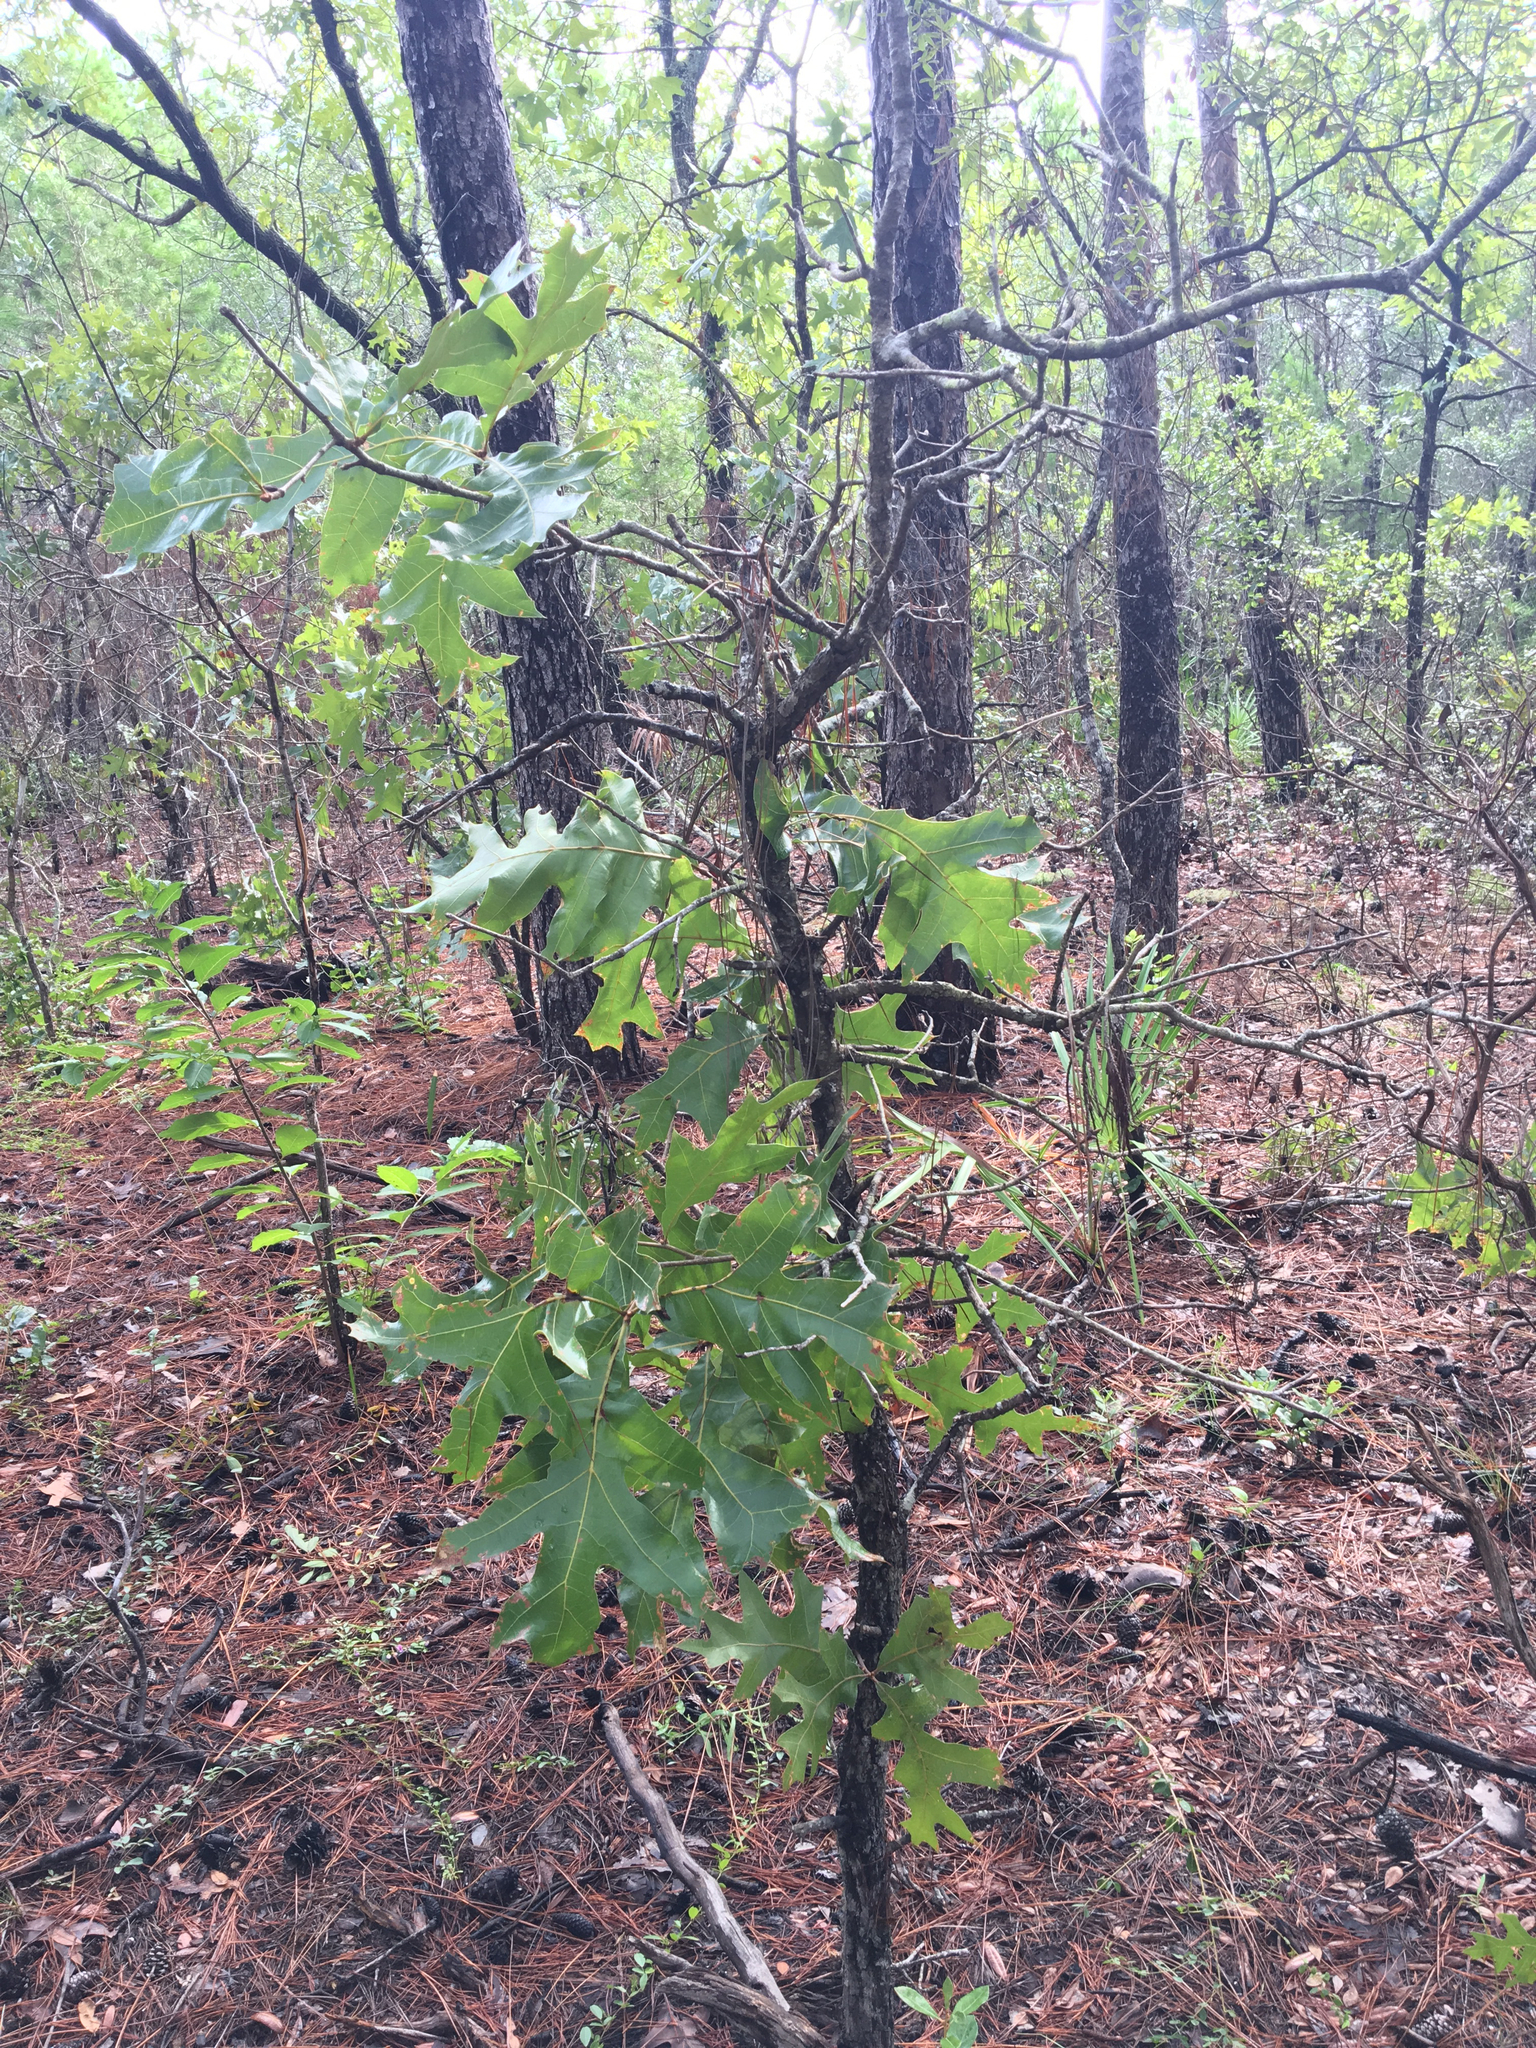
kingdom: Plantae
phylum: Tracheophyta
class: Magnoliopsida
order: Fagales
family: Fagaceae
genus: Quercus
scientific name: Quercus laevis
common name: Turkey oak
